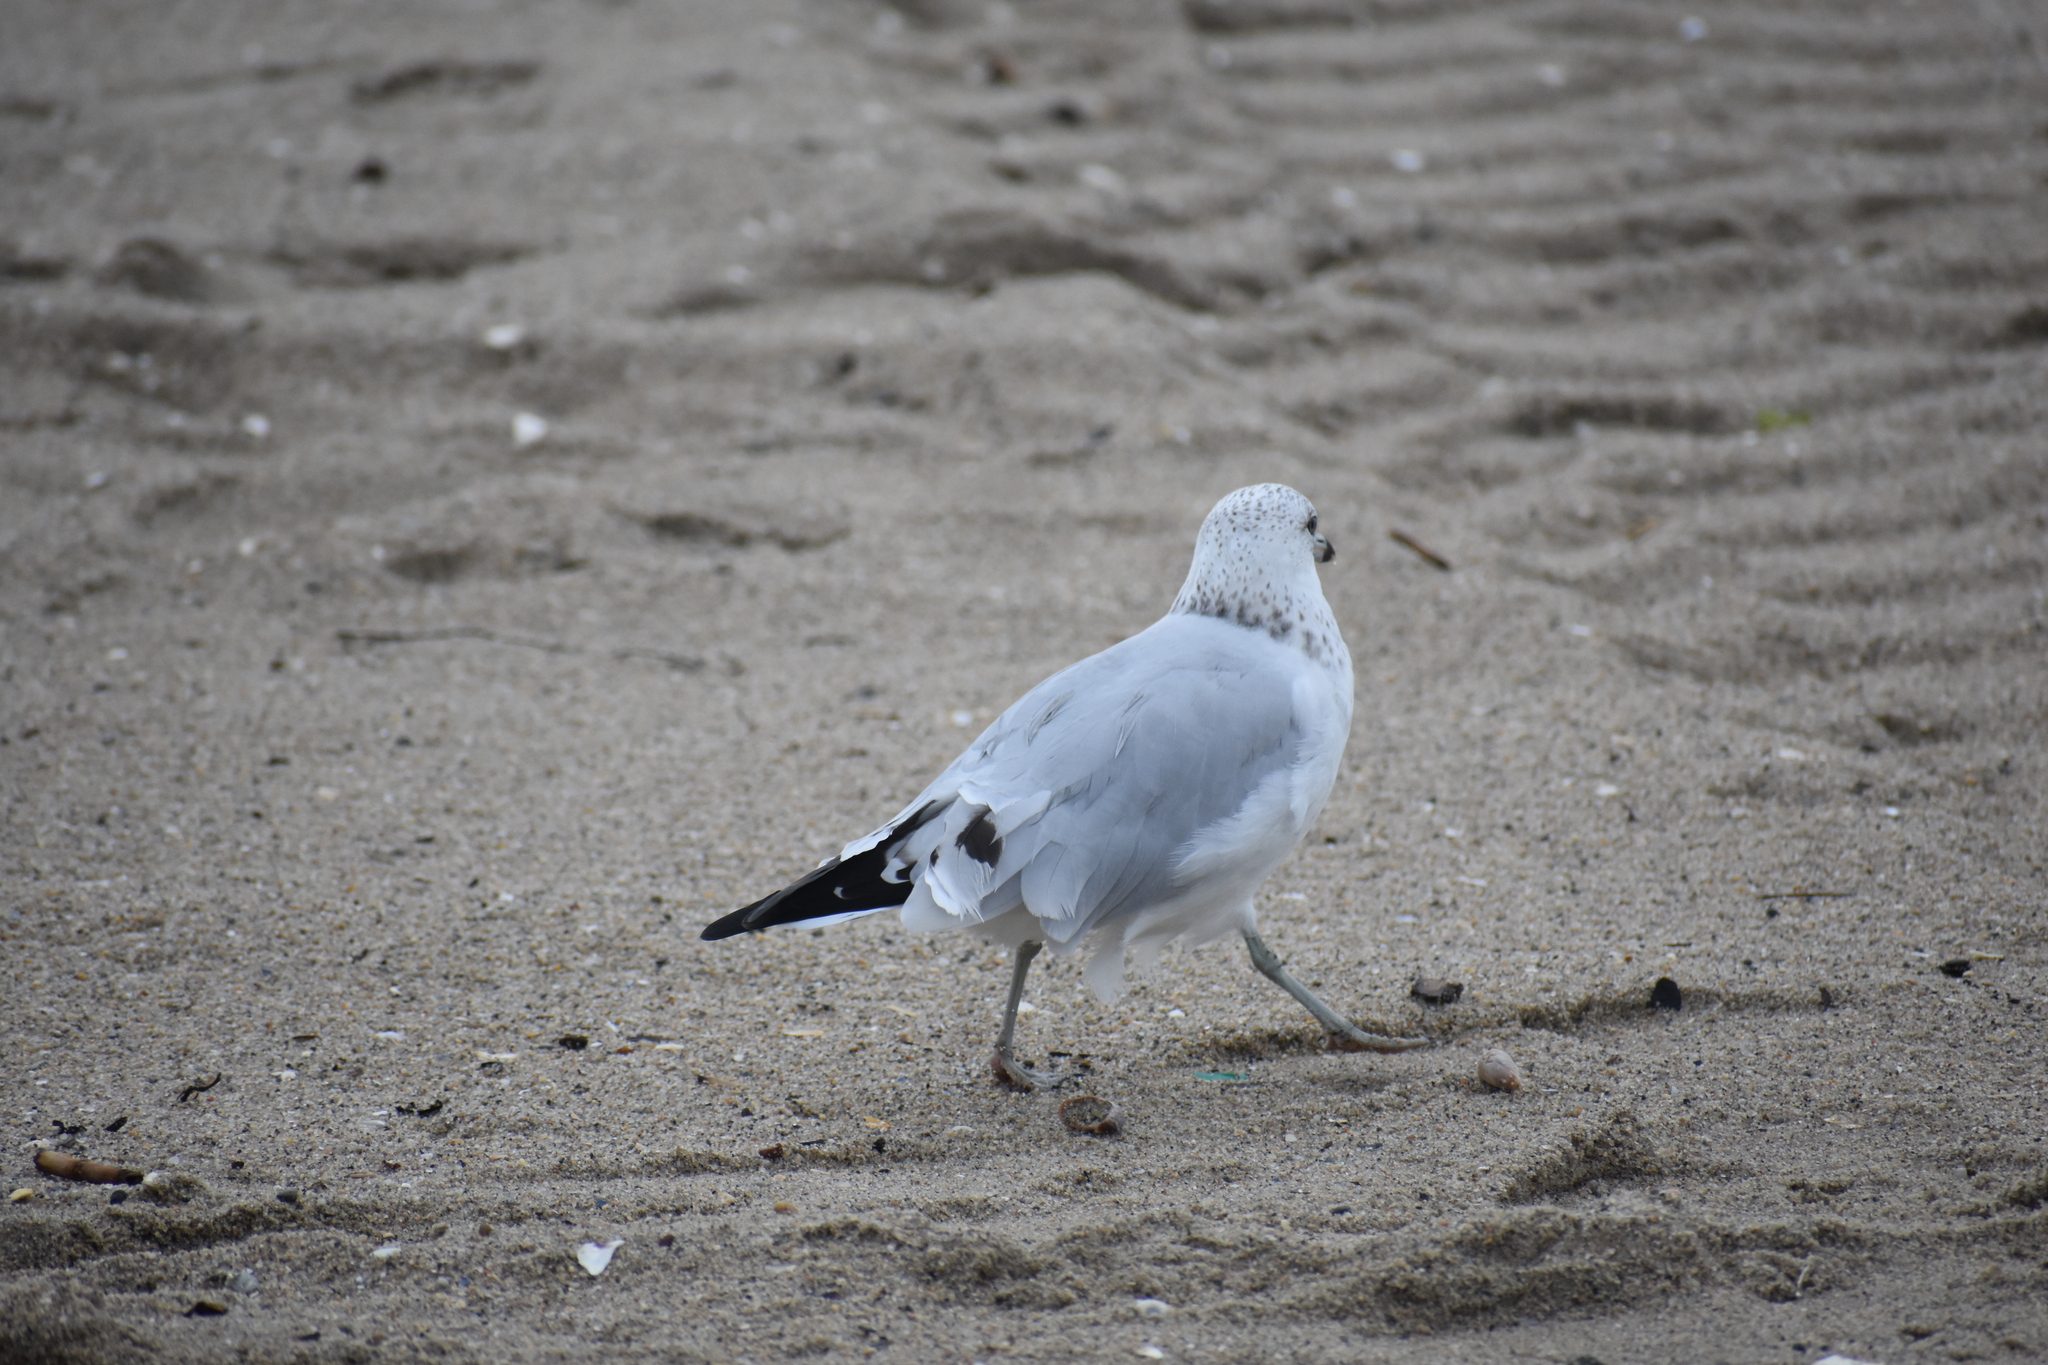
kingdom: Animalia
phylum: Chordata
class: Aves
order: Charadriiformes
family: Laridae
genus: Larus
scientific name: Larus delawarensis
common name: Ring-billed gull
